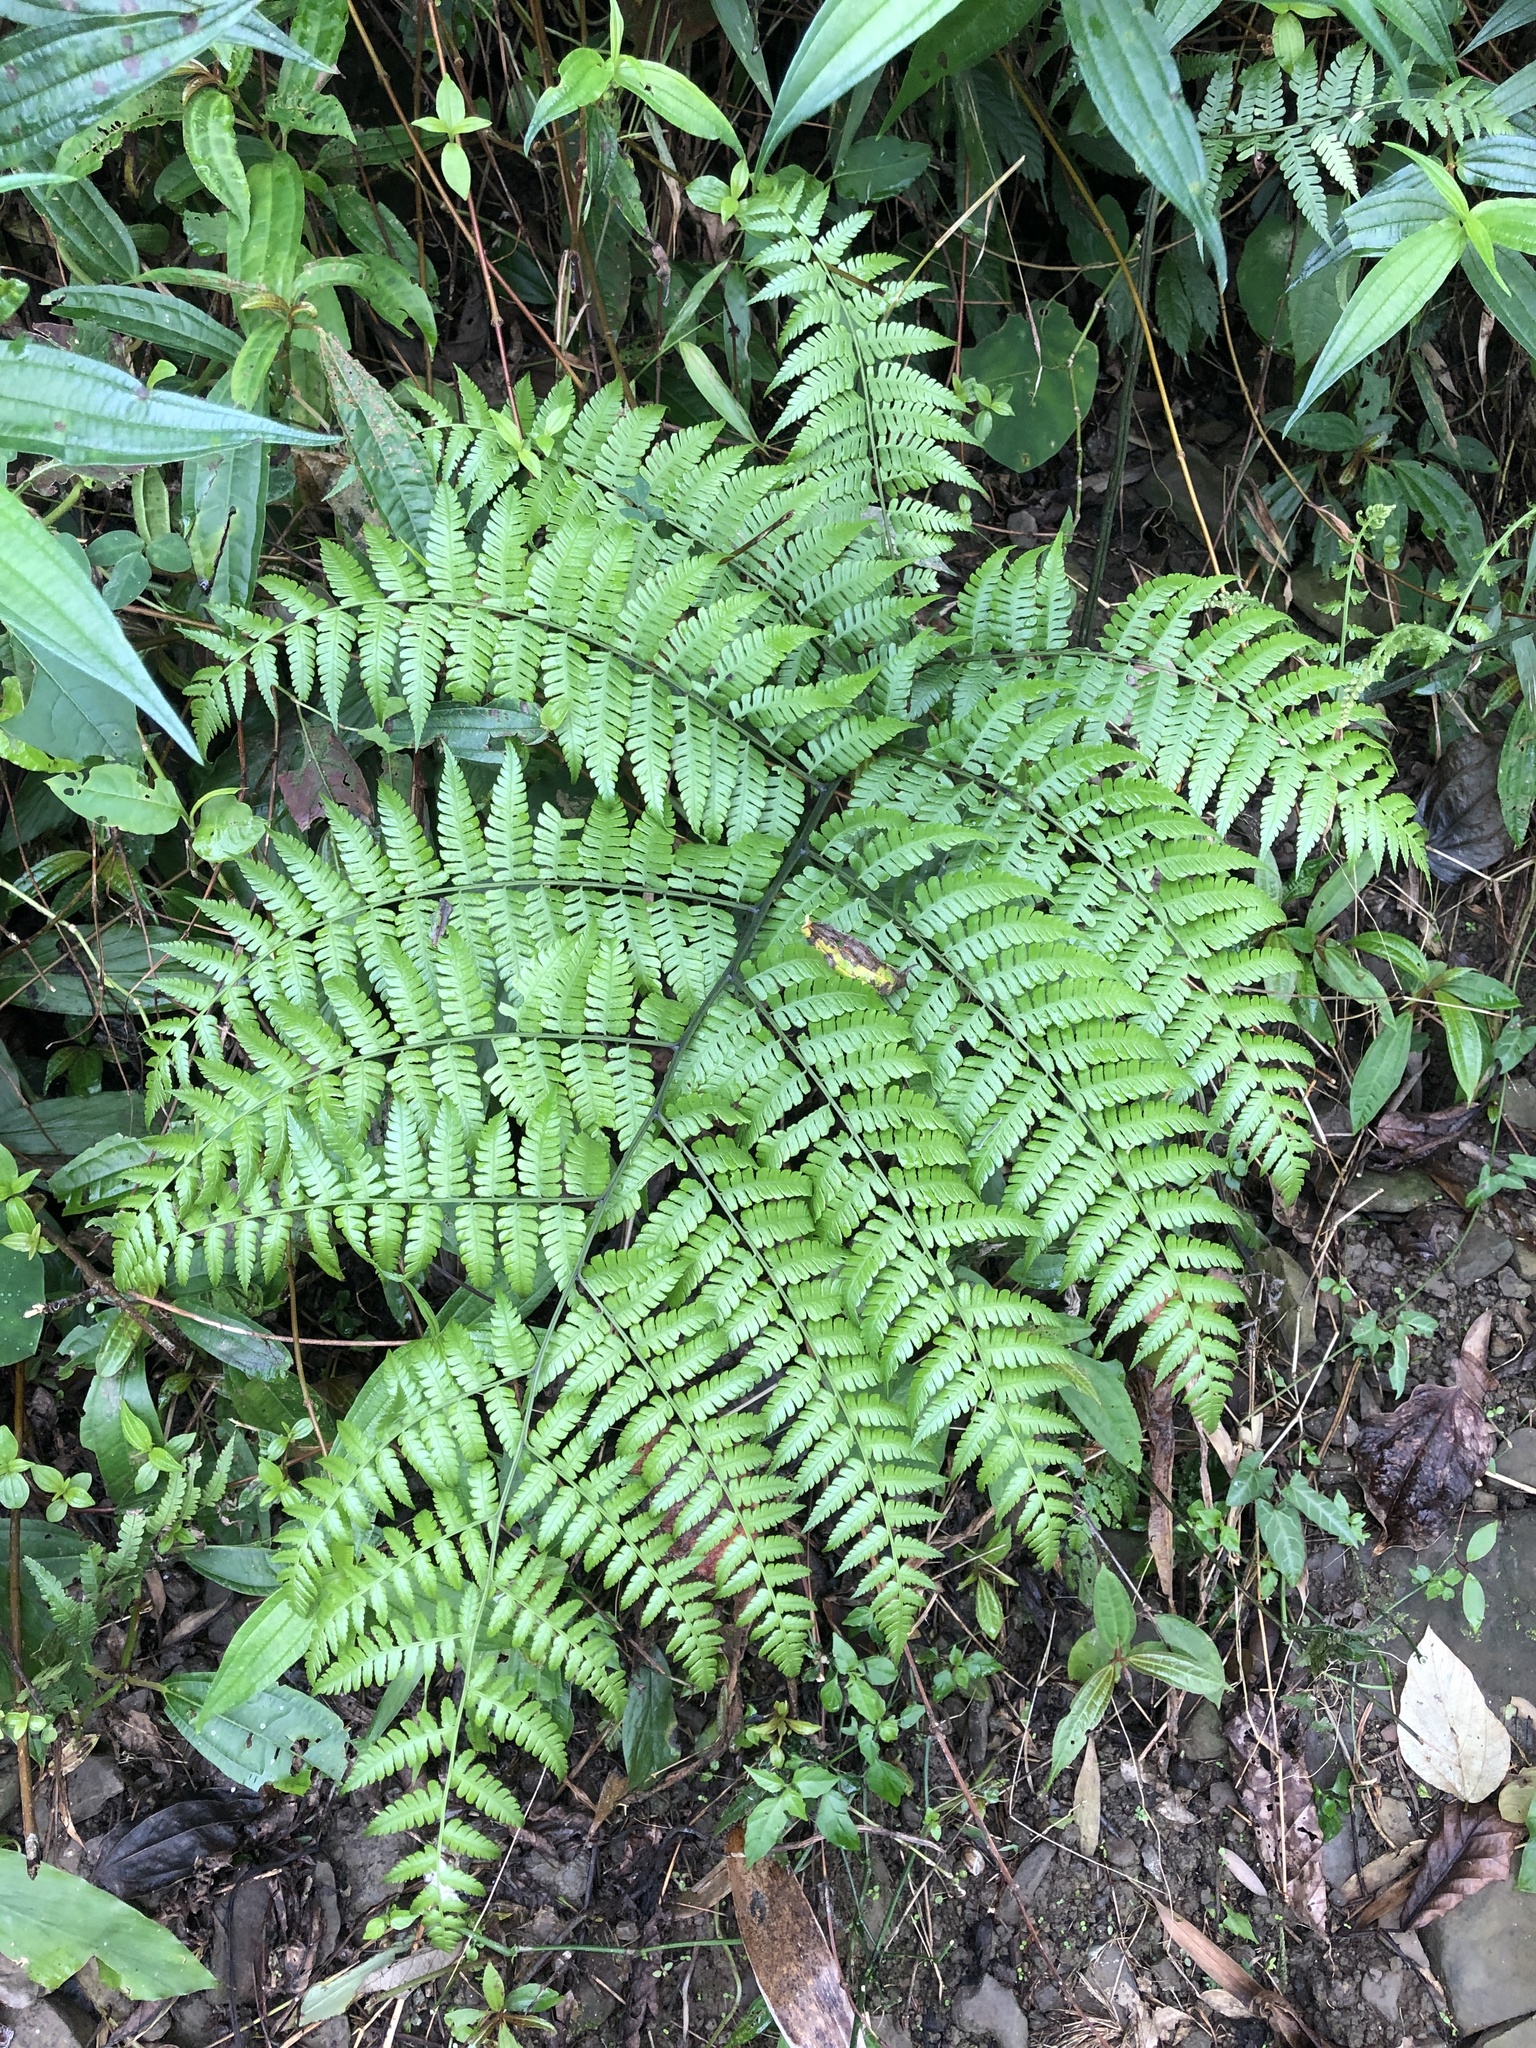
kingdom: Plantae
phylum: Tracheophyta
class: Polypodiopsida
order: Polypodiales
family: Athyriaceae
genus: Diplazium
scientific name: Diplazium laxifrons
